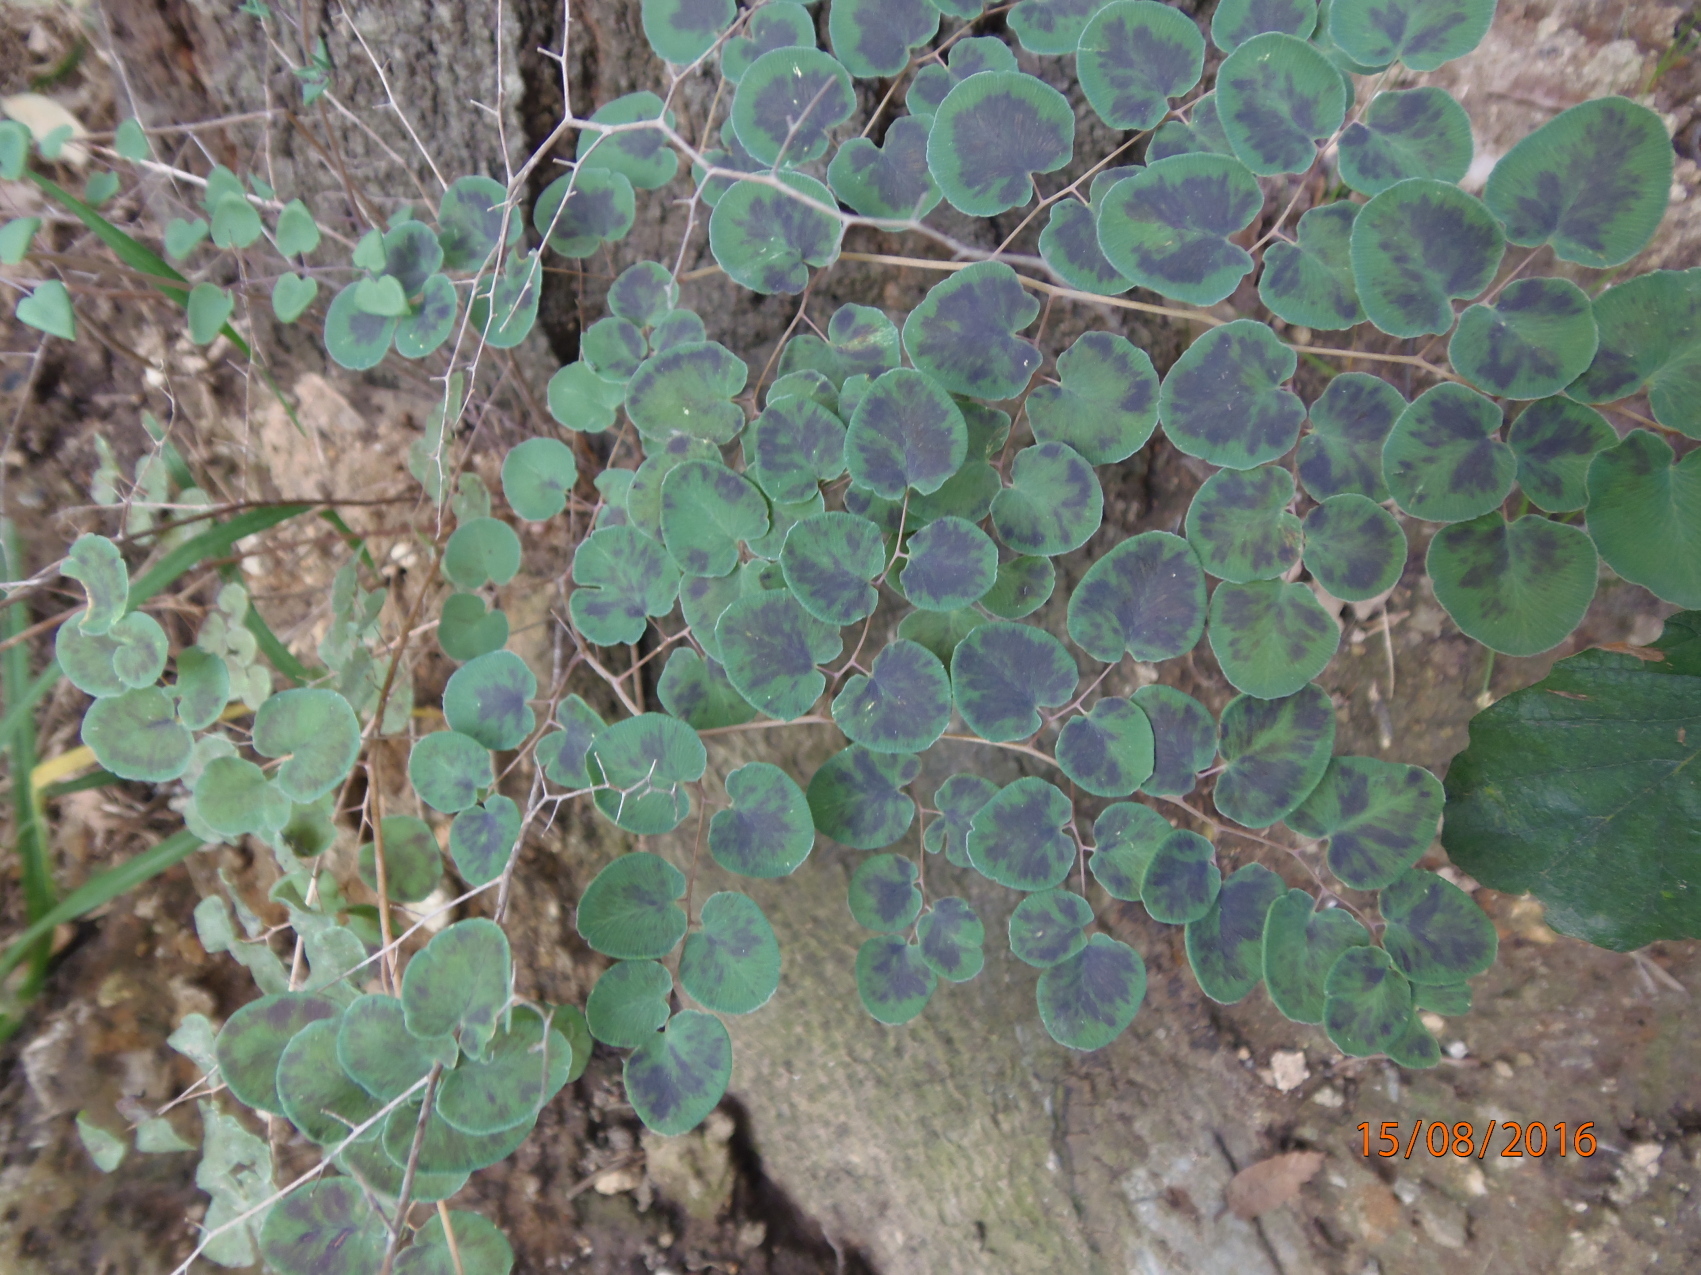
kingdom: Plantae
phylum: Tracheophyta
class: Polypodiopsida
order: Polypodiales
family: Pteridaceae
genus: Pellaea
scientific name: Pellaea cordifolia
